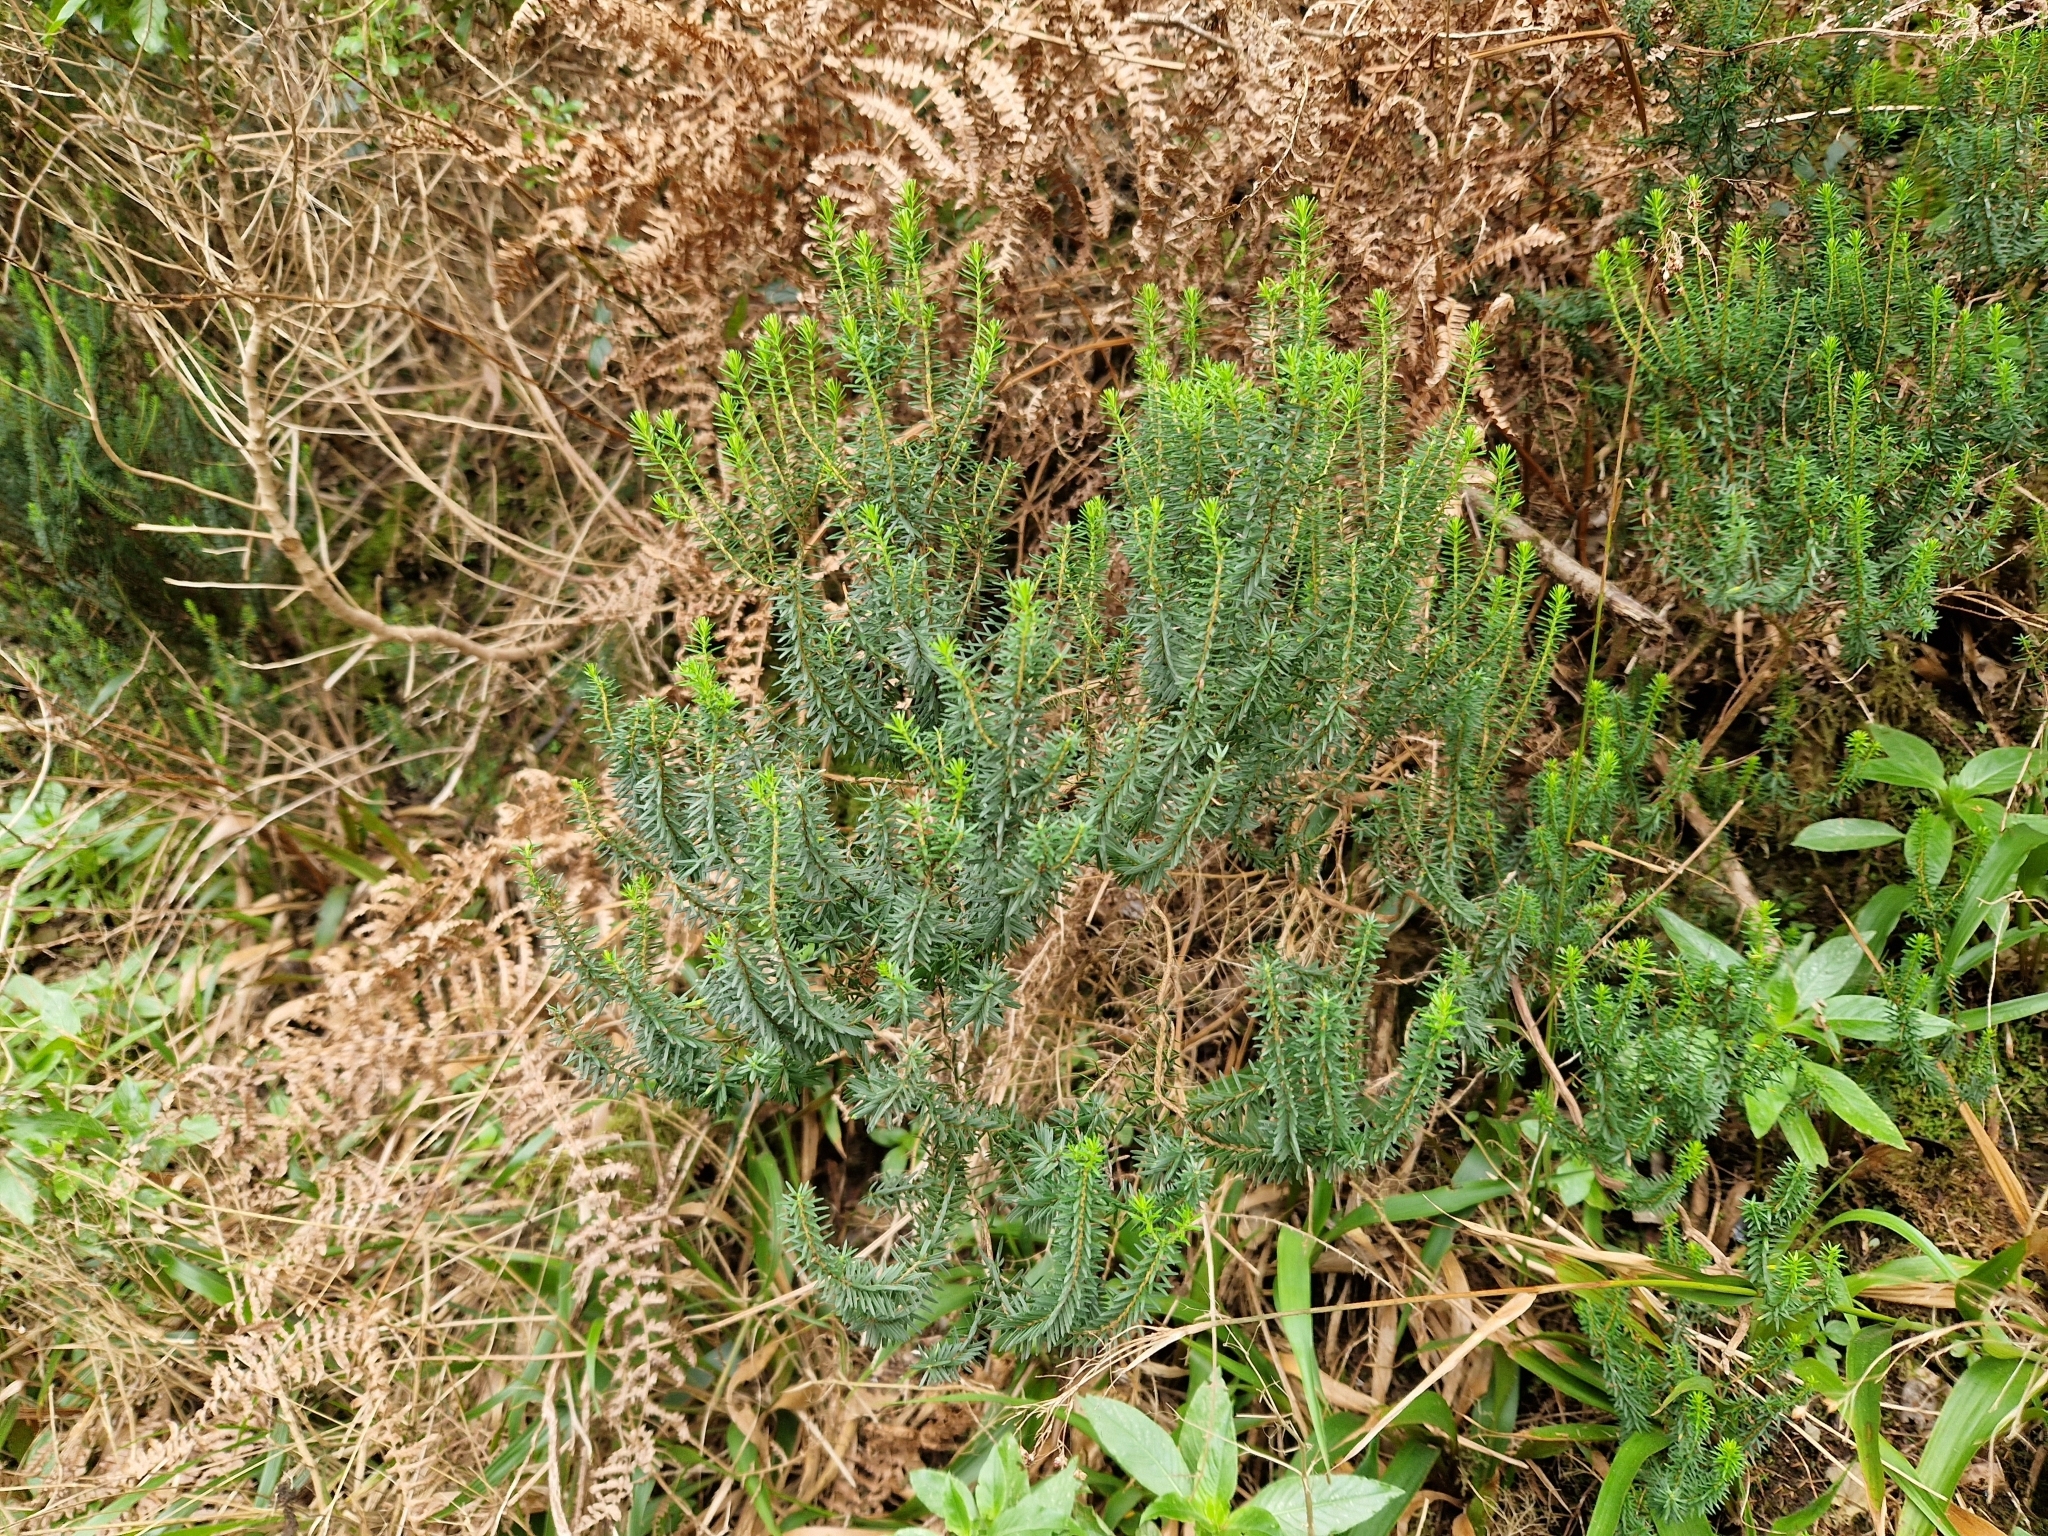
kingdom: Plantae
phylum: Tracheophyta
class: Magnoliopsida
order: Ericales
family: Ericaceae
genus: Erica
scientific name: Erica platycodon
